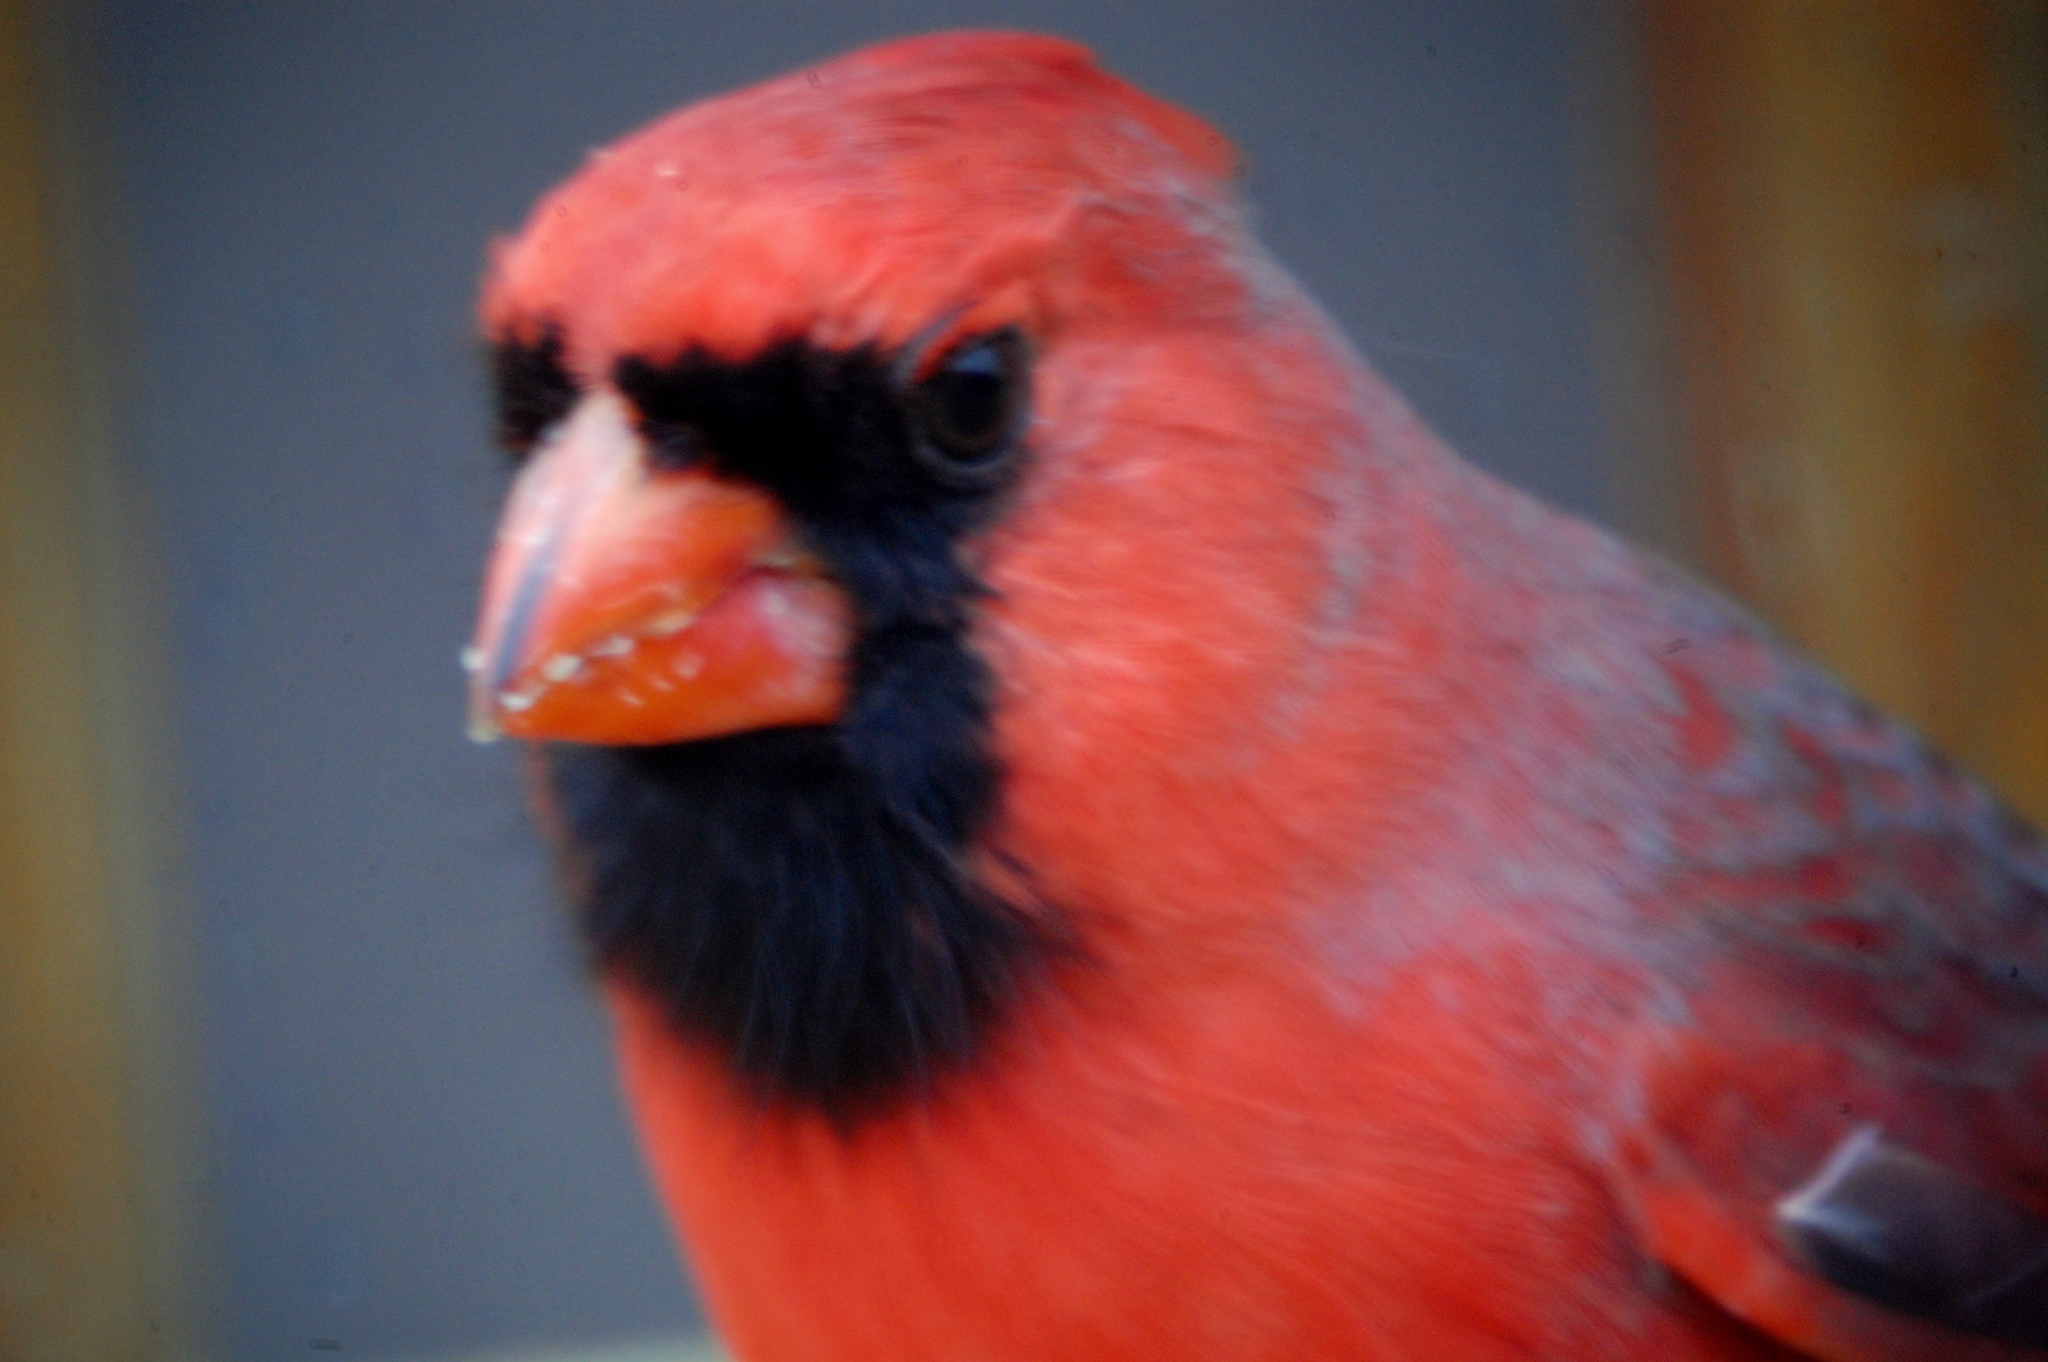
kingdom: Animalia
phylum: Chordata
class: Aves
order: Passeriformes
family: Cardinalidae
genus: Cardinalis
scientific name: Cardinalis cardinalis
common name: Northern cardinal
